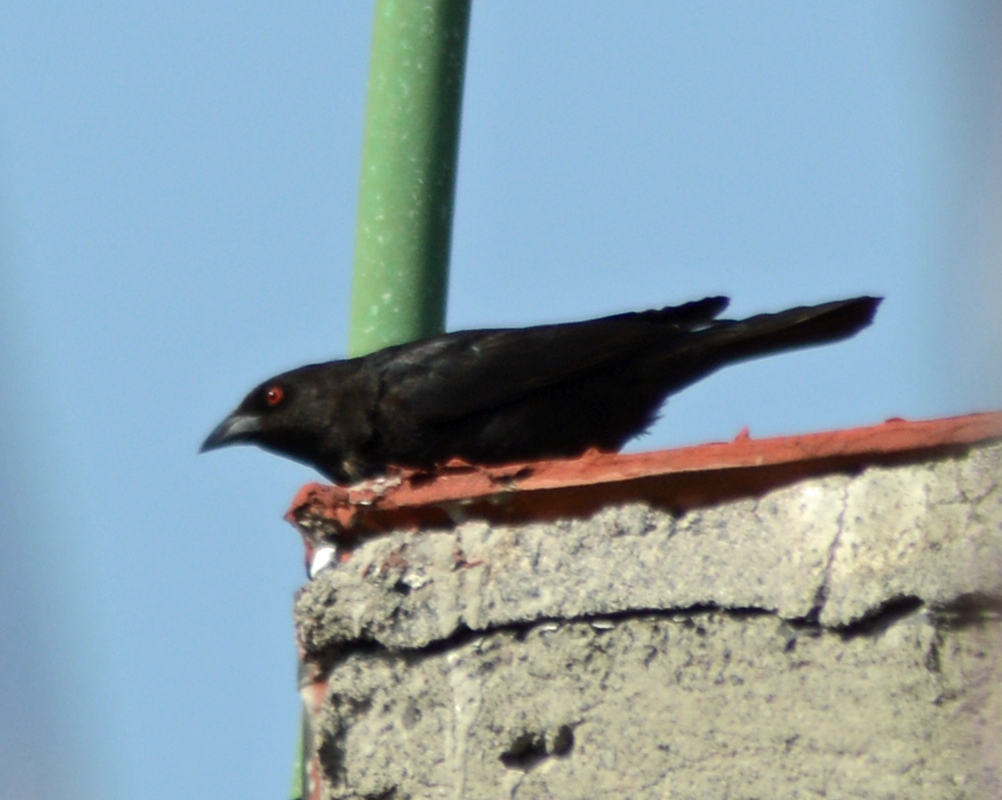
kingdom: Animalia
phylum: Chordata
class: Aves
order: Passeriformes
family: Icteridae
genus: Molothrus
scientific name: Molothrus aeneus
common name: Bronzed cowbird
